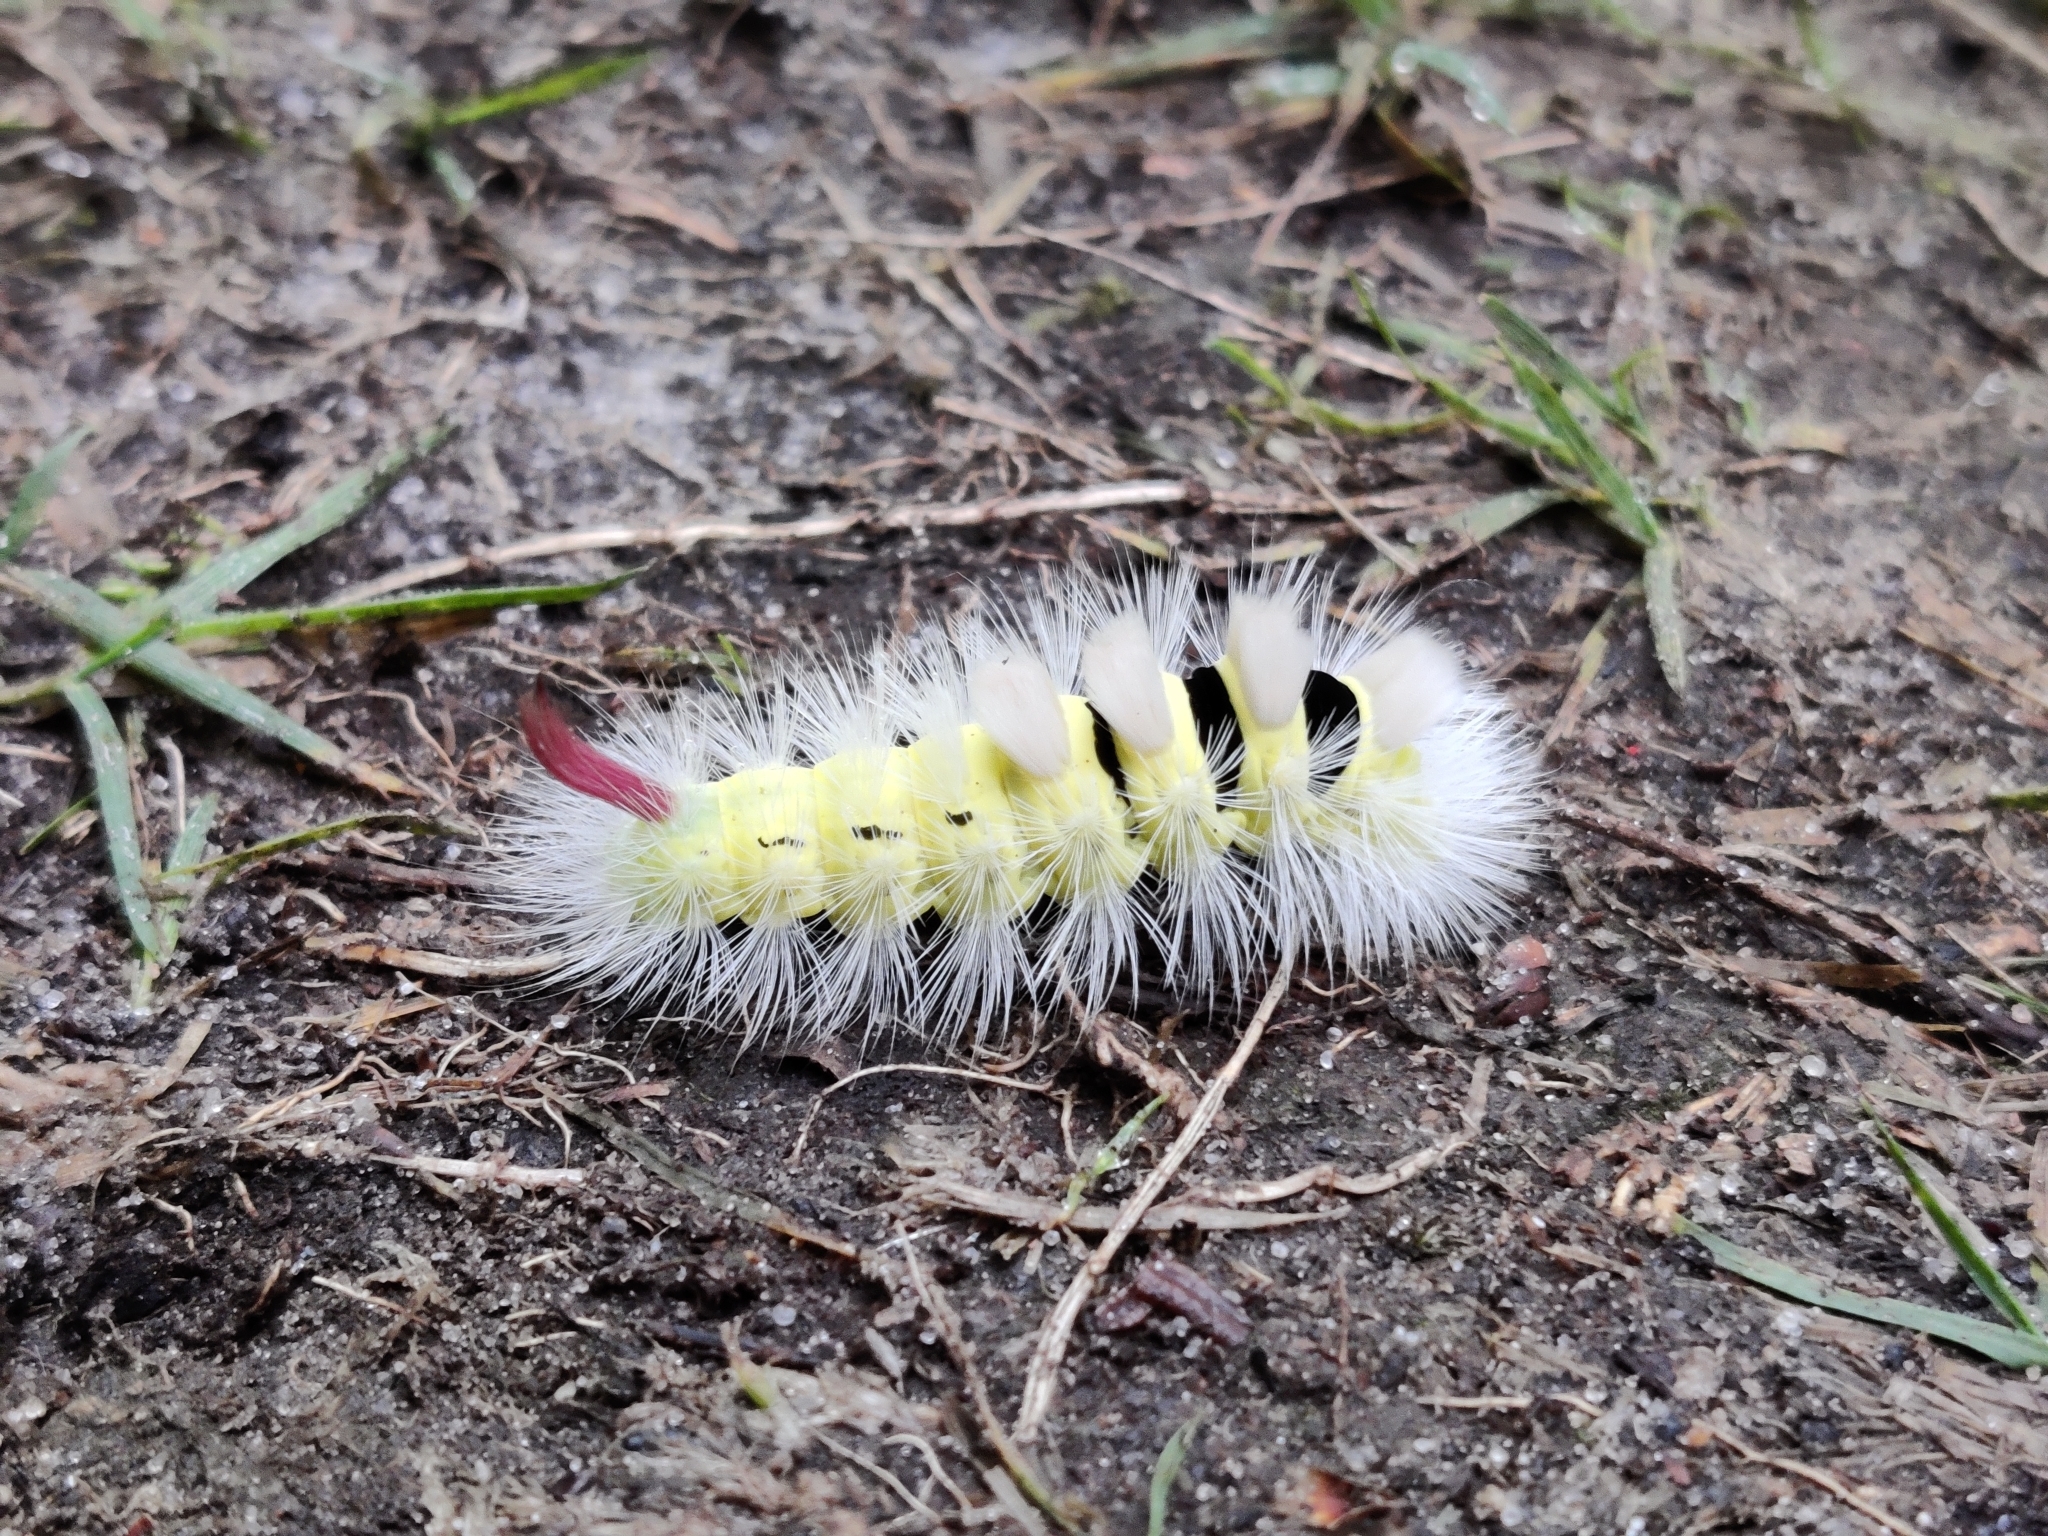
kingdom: Animalia
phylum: Arthropoda
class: Insecta
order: Lepidoptera
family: Erebidae
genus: Calliteara
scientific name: Calliteara pudibunda
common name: Pale tussock
